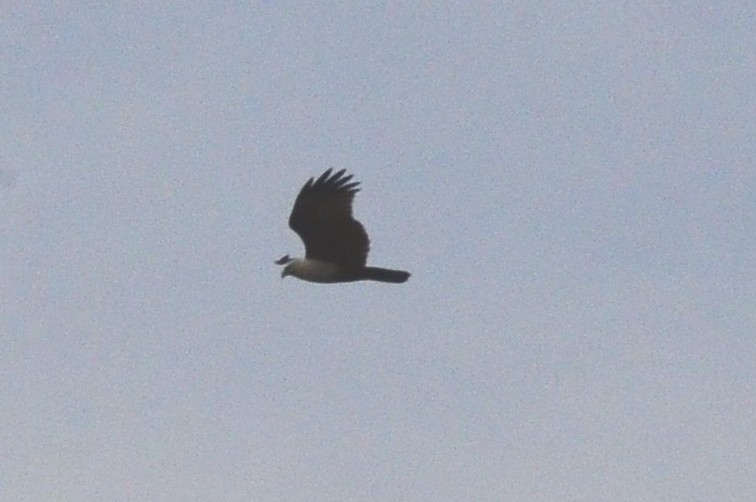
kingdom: Animalia
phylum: Chordata
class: Aves
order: Accipitriformes
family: Accipitridae
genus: Haliastur
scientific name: Haliastur indus
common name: Brahminy kite
